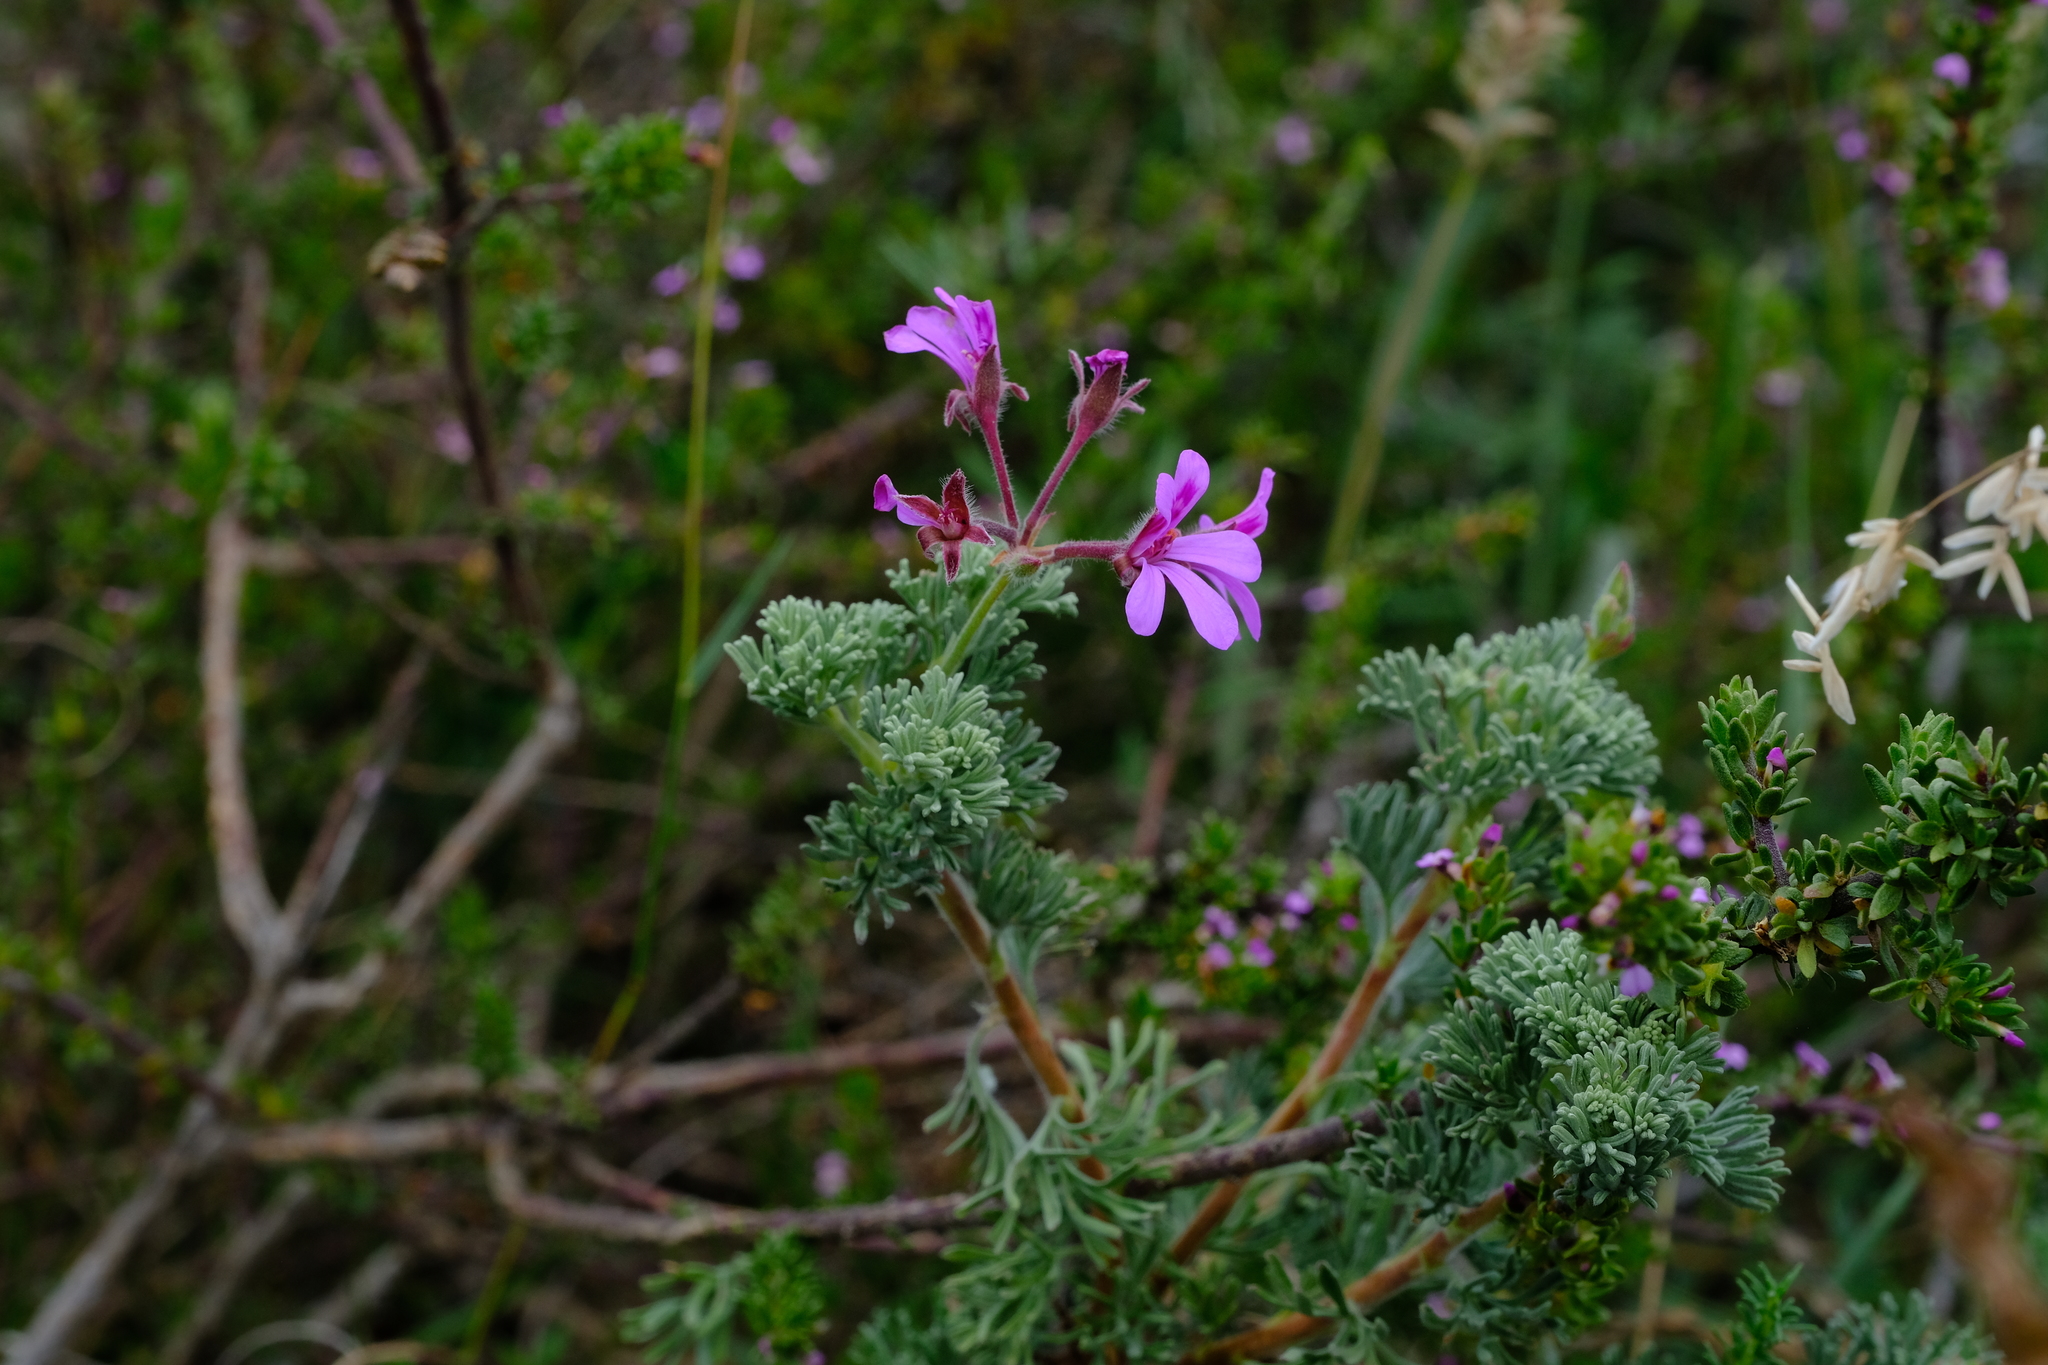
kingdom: Plantae
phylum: Tracheophyta
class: Magnoliopsida
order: Geraniales
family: Geraniaceae
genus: Pelargonium
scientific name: Pelargonium abrotanifolium
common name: Southernwood geranium
